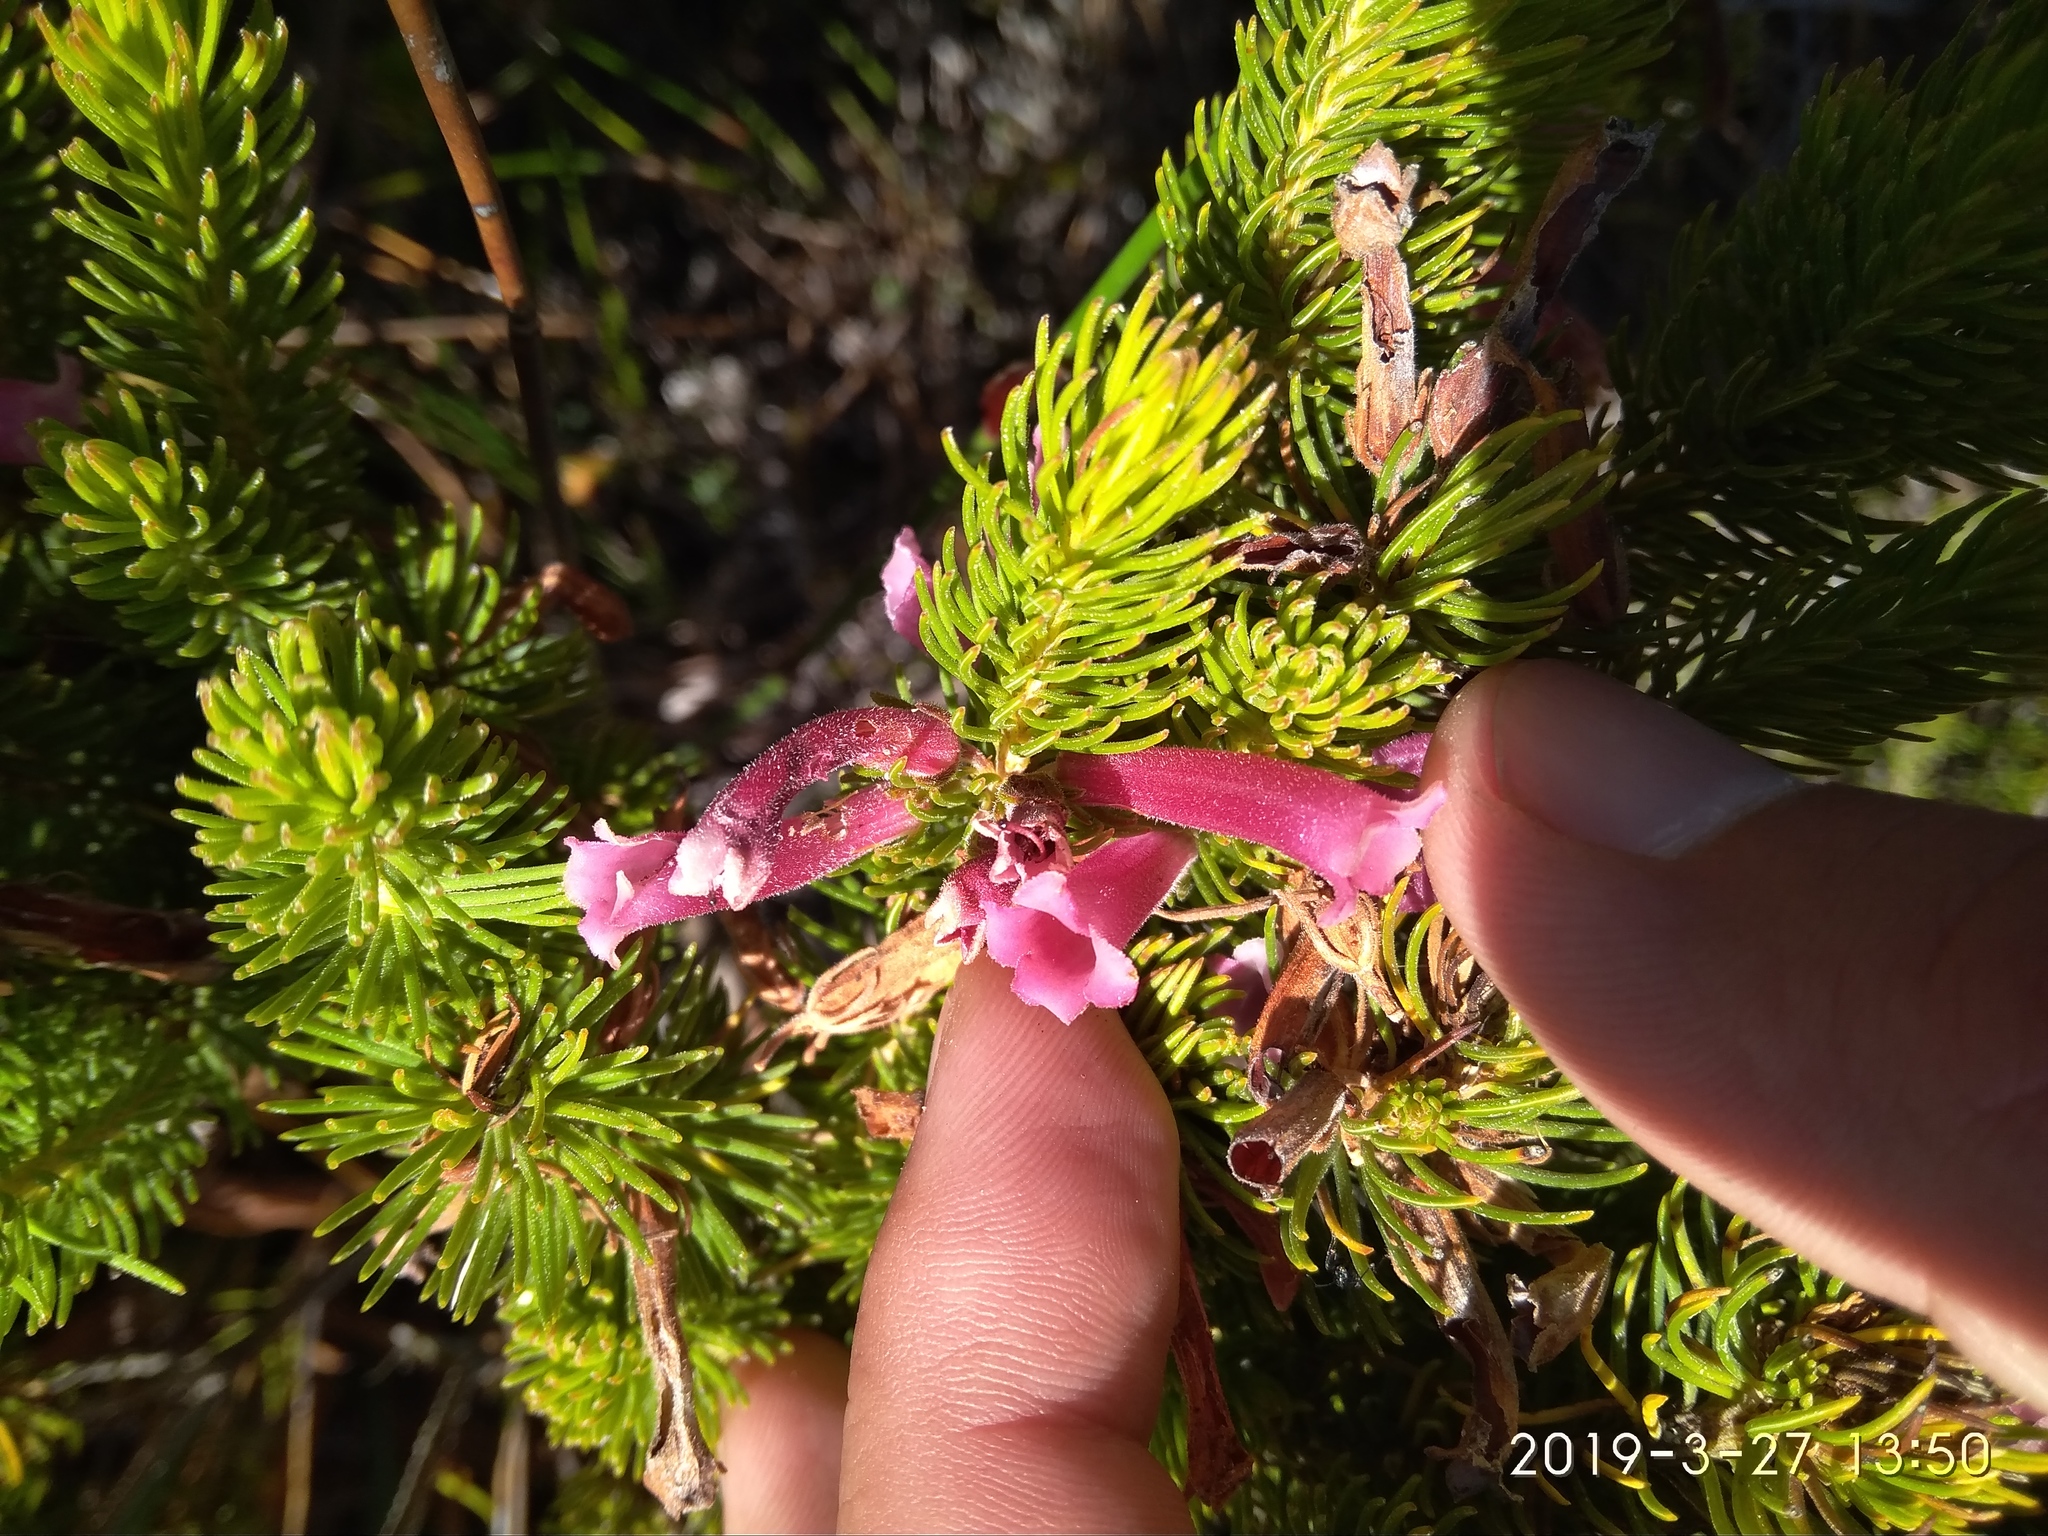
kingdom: Plantae
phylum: Tracheophyta
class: Magnoliopsida
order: Ericales
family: Ericaceae
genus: Erica
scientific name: Erica viscaria
